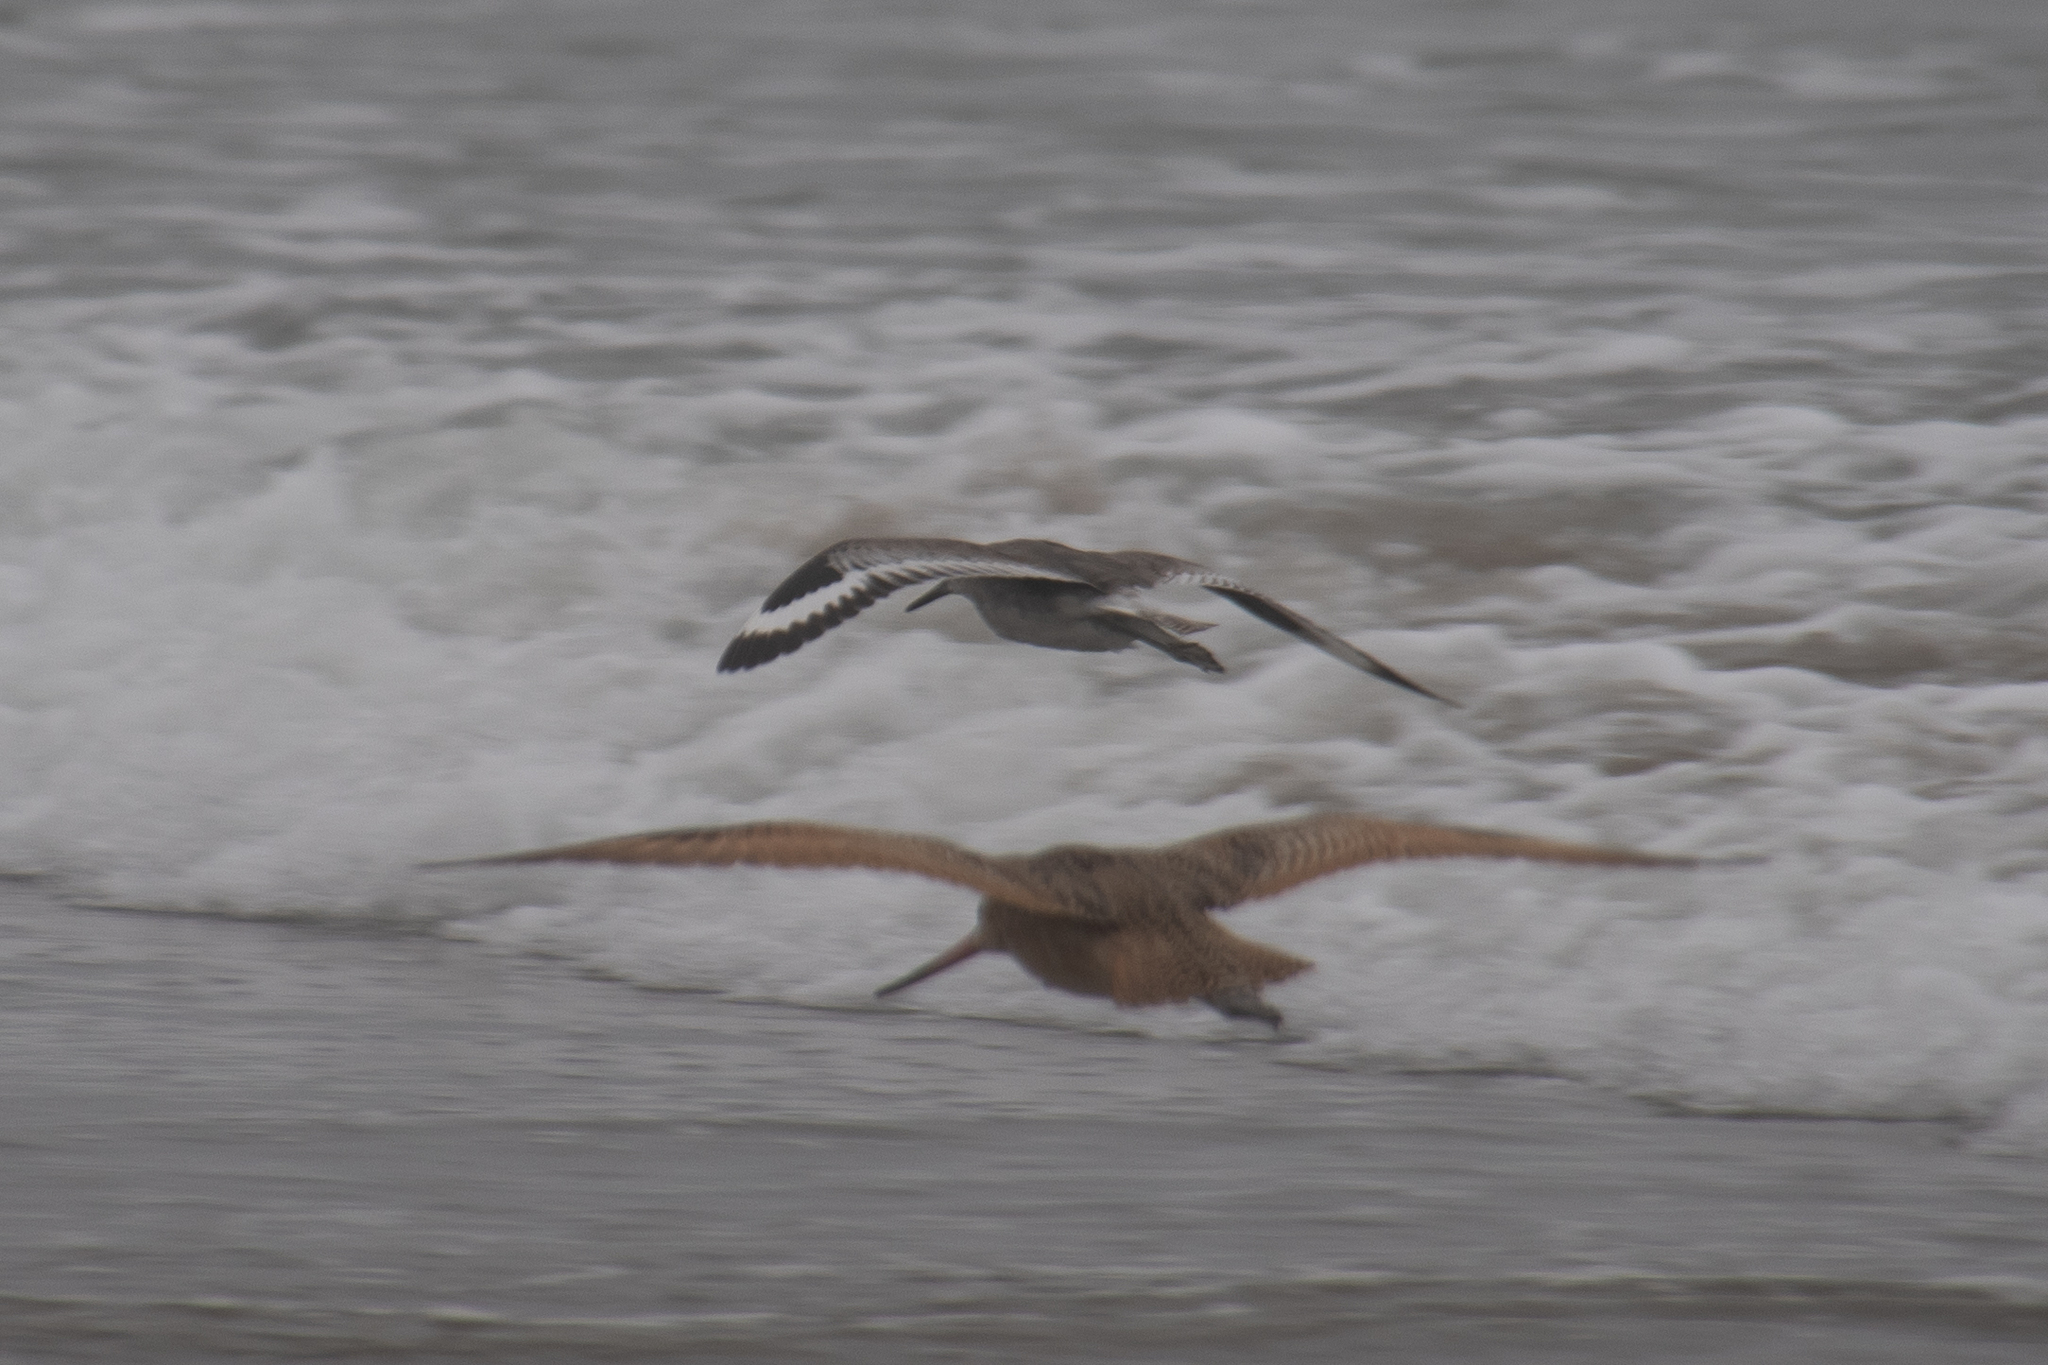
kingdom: Animalia
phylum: Chordata
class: Aves
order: Charadriiformes
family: Scolopacidae
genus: Tringa
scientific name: Tringa semipalmata
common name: Willet
